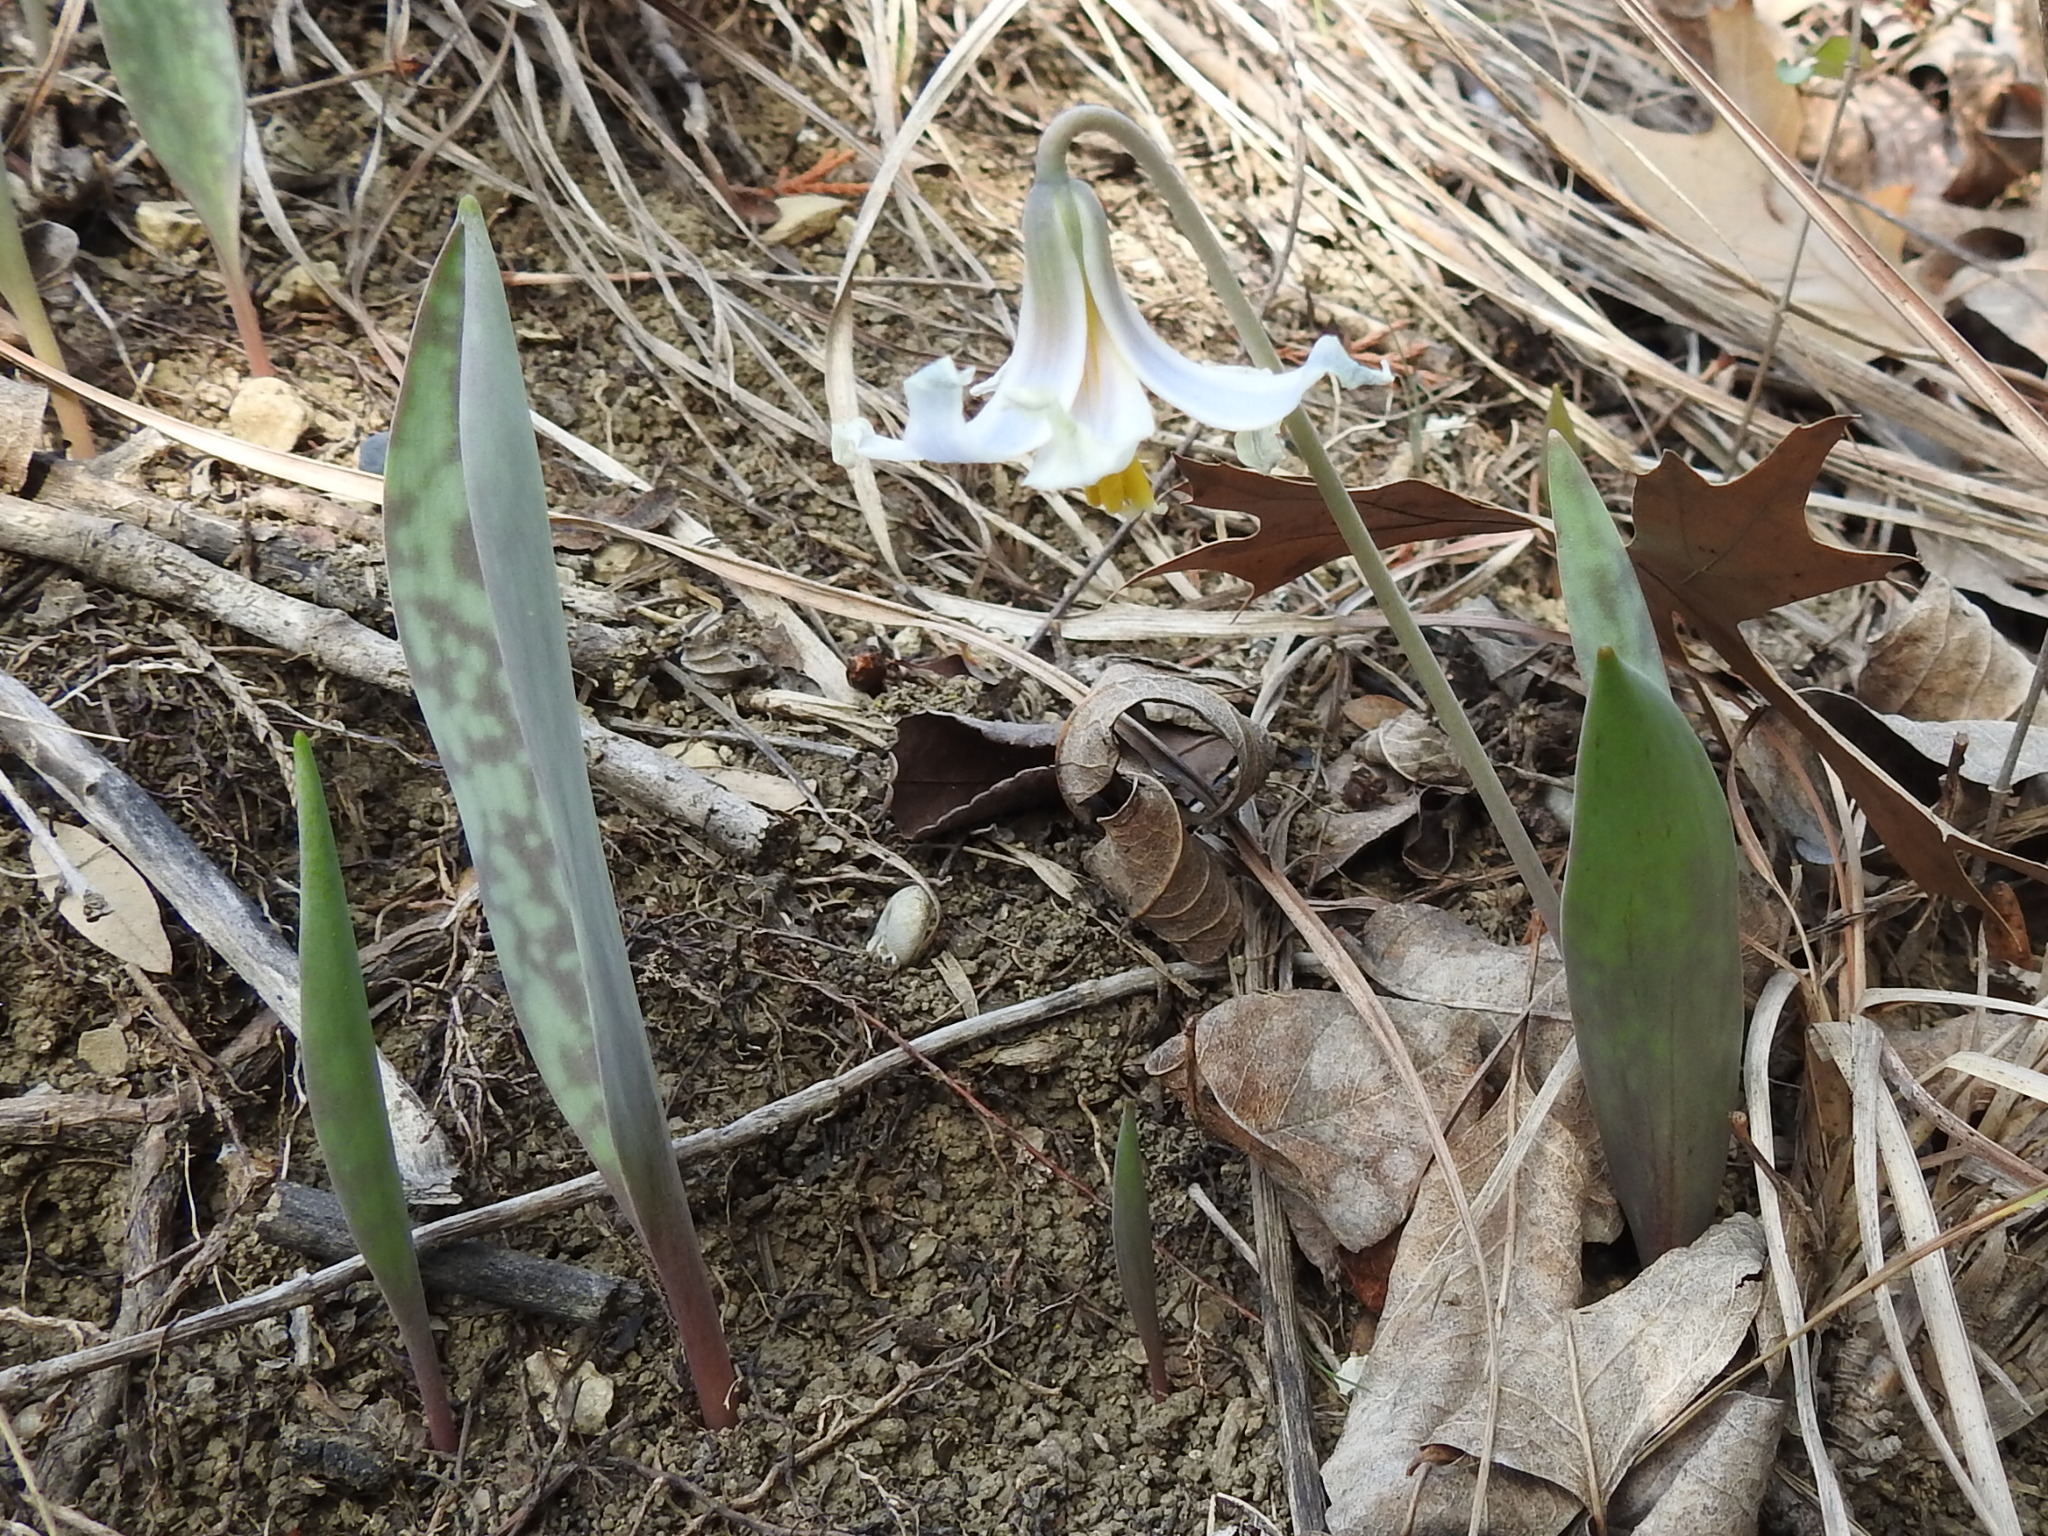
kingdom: Plantae
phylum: Tracheophyta
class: Liliopsida
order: Liliales
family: Liliaceae
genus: Erythronium
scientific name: Erythronium albidum
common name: White trout-lily
